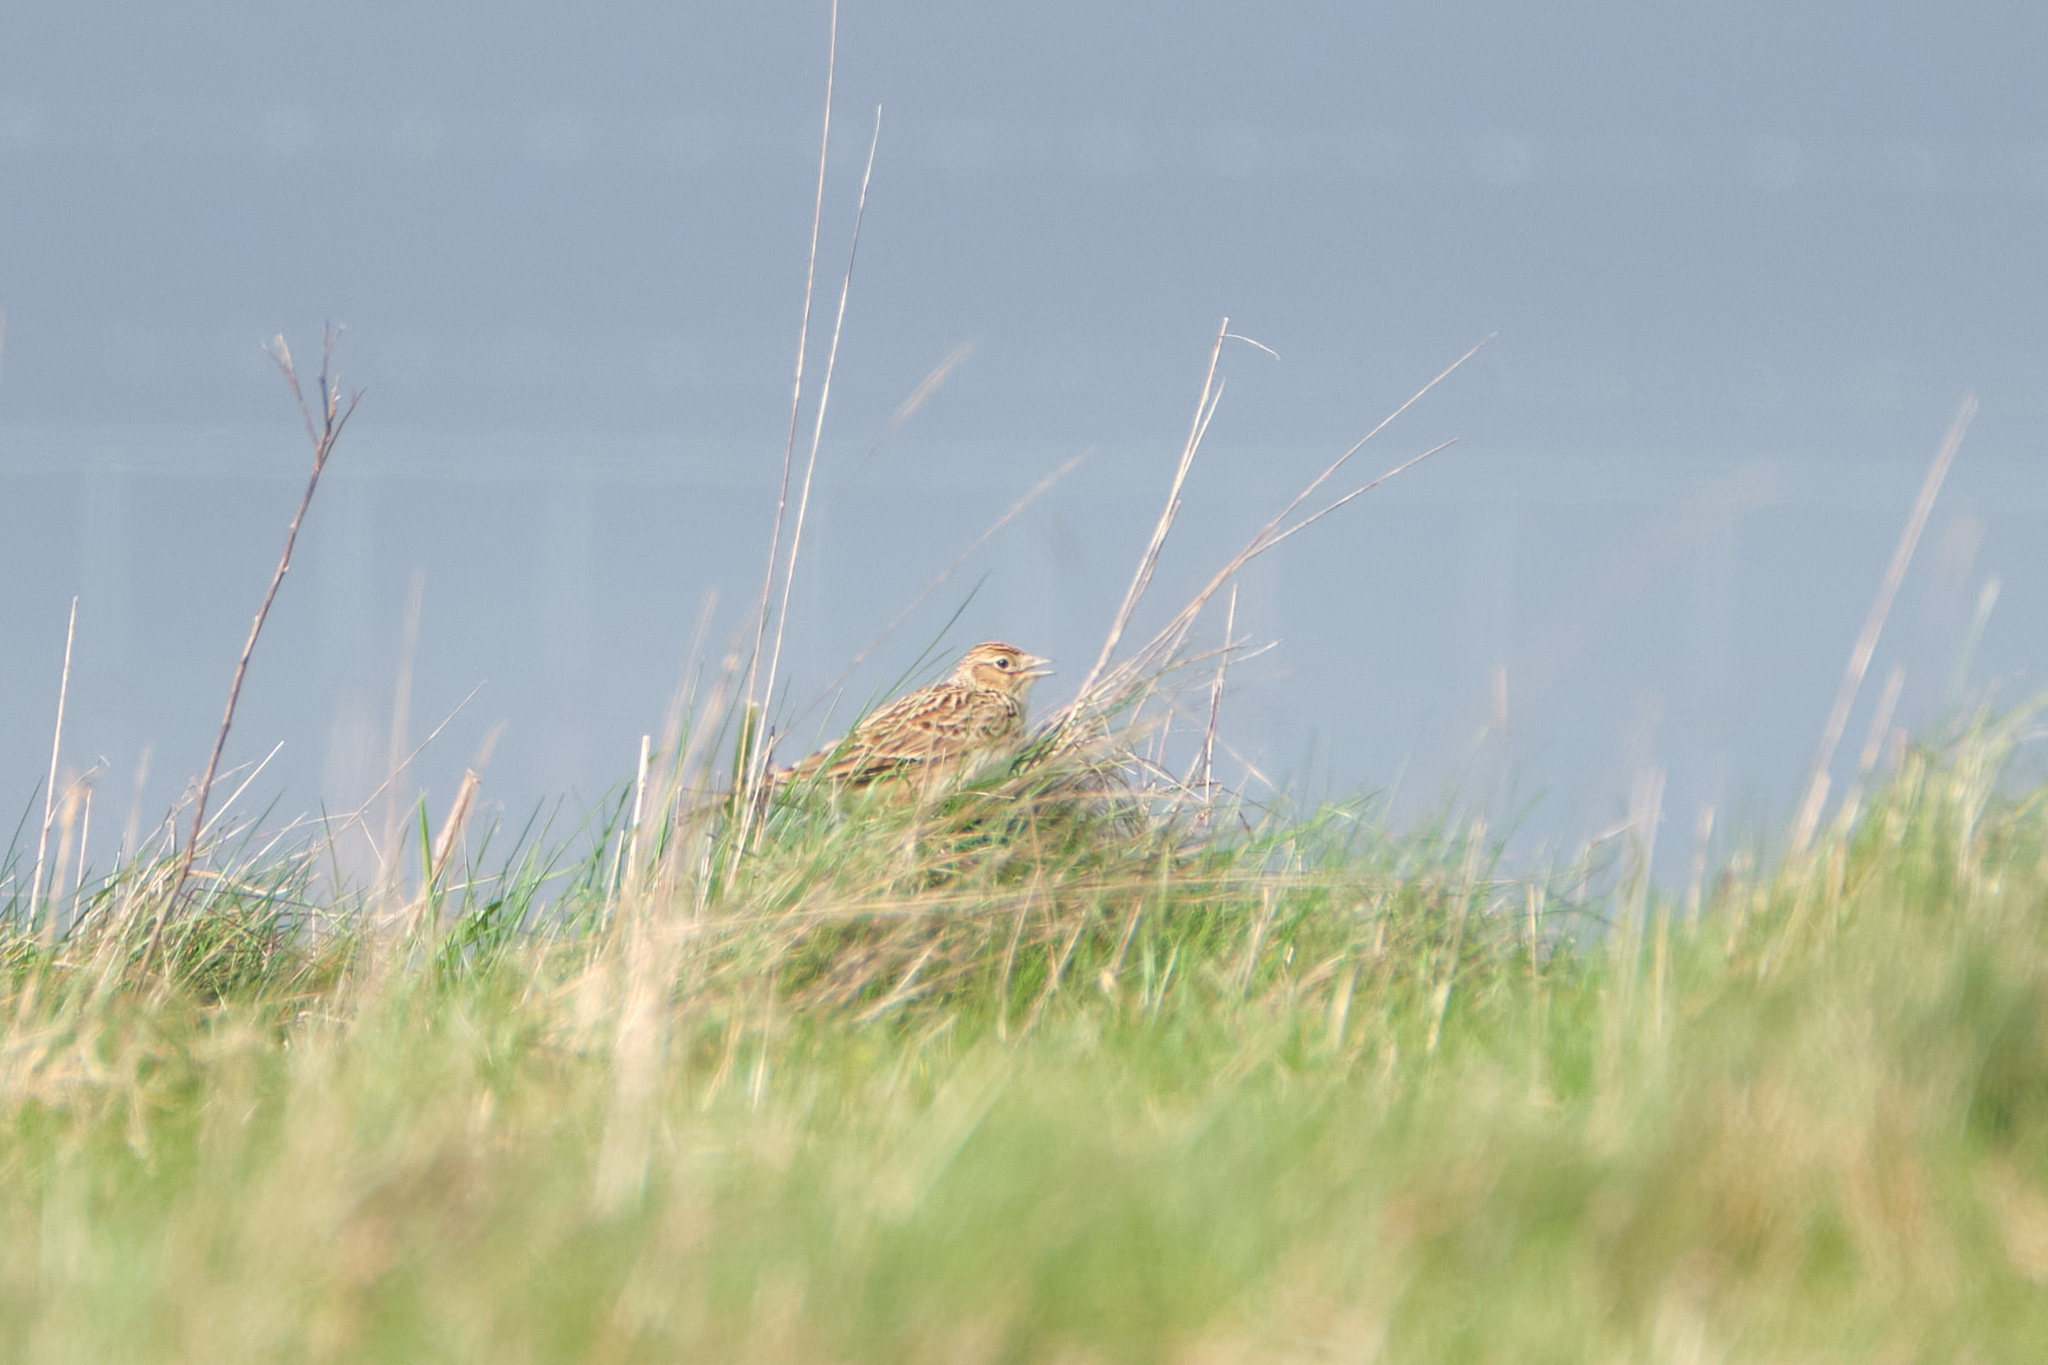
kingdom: Animalia
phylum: Chordata
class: Aves
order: Passeriformes
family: Alaudidae
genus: Alauda
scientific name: Alauda arvensis
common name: Eurasian skylark
